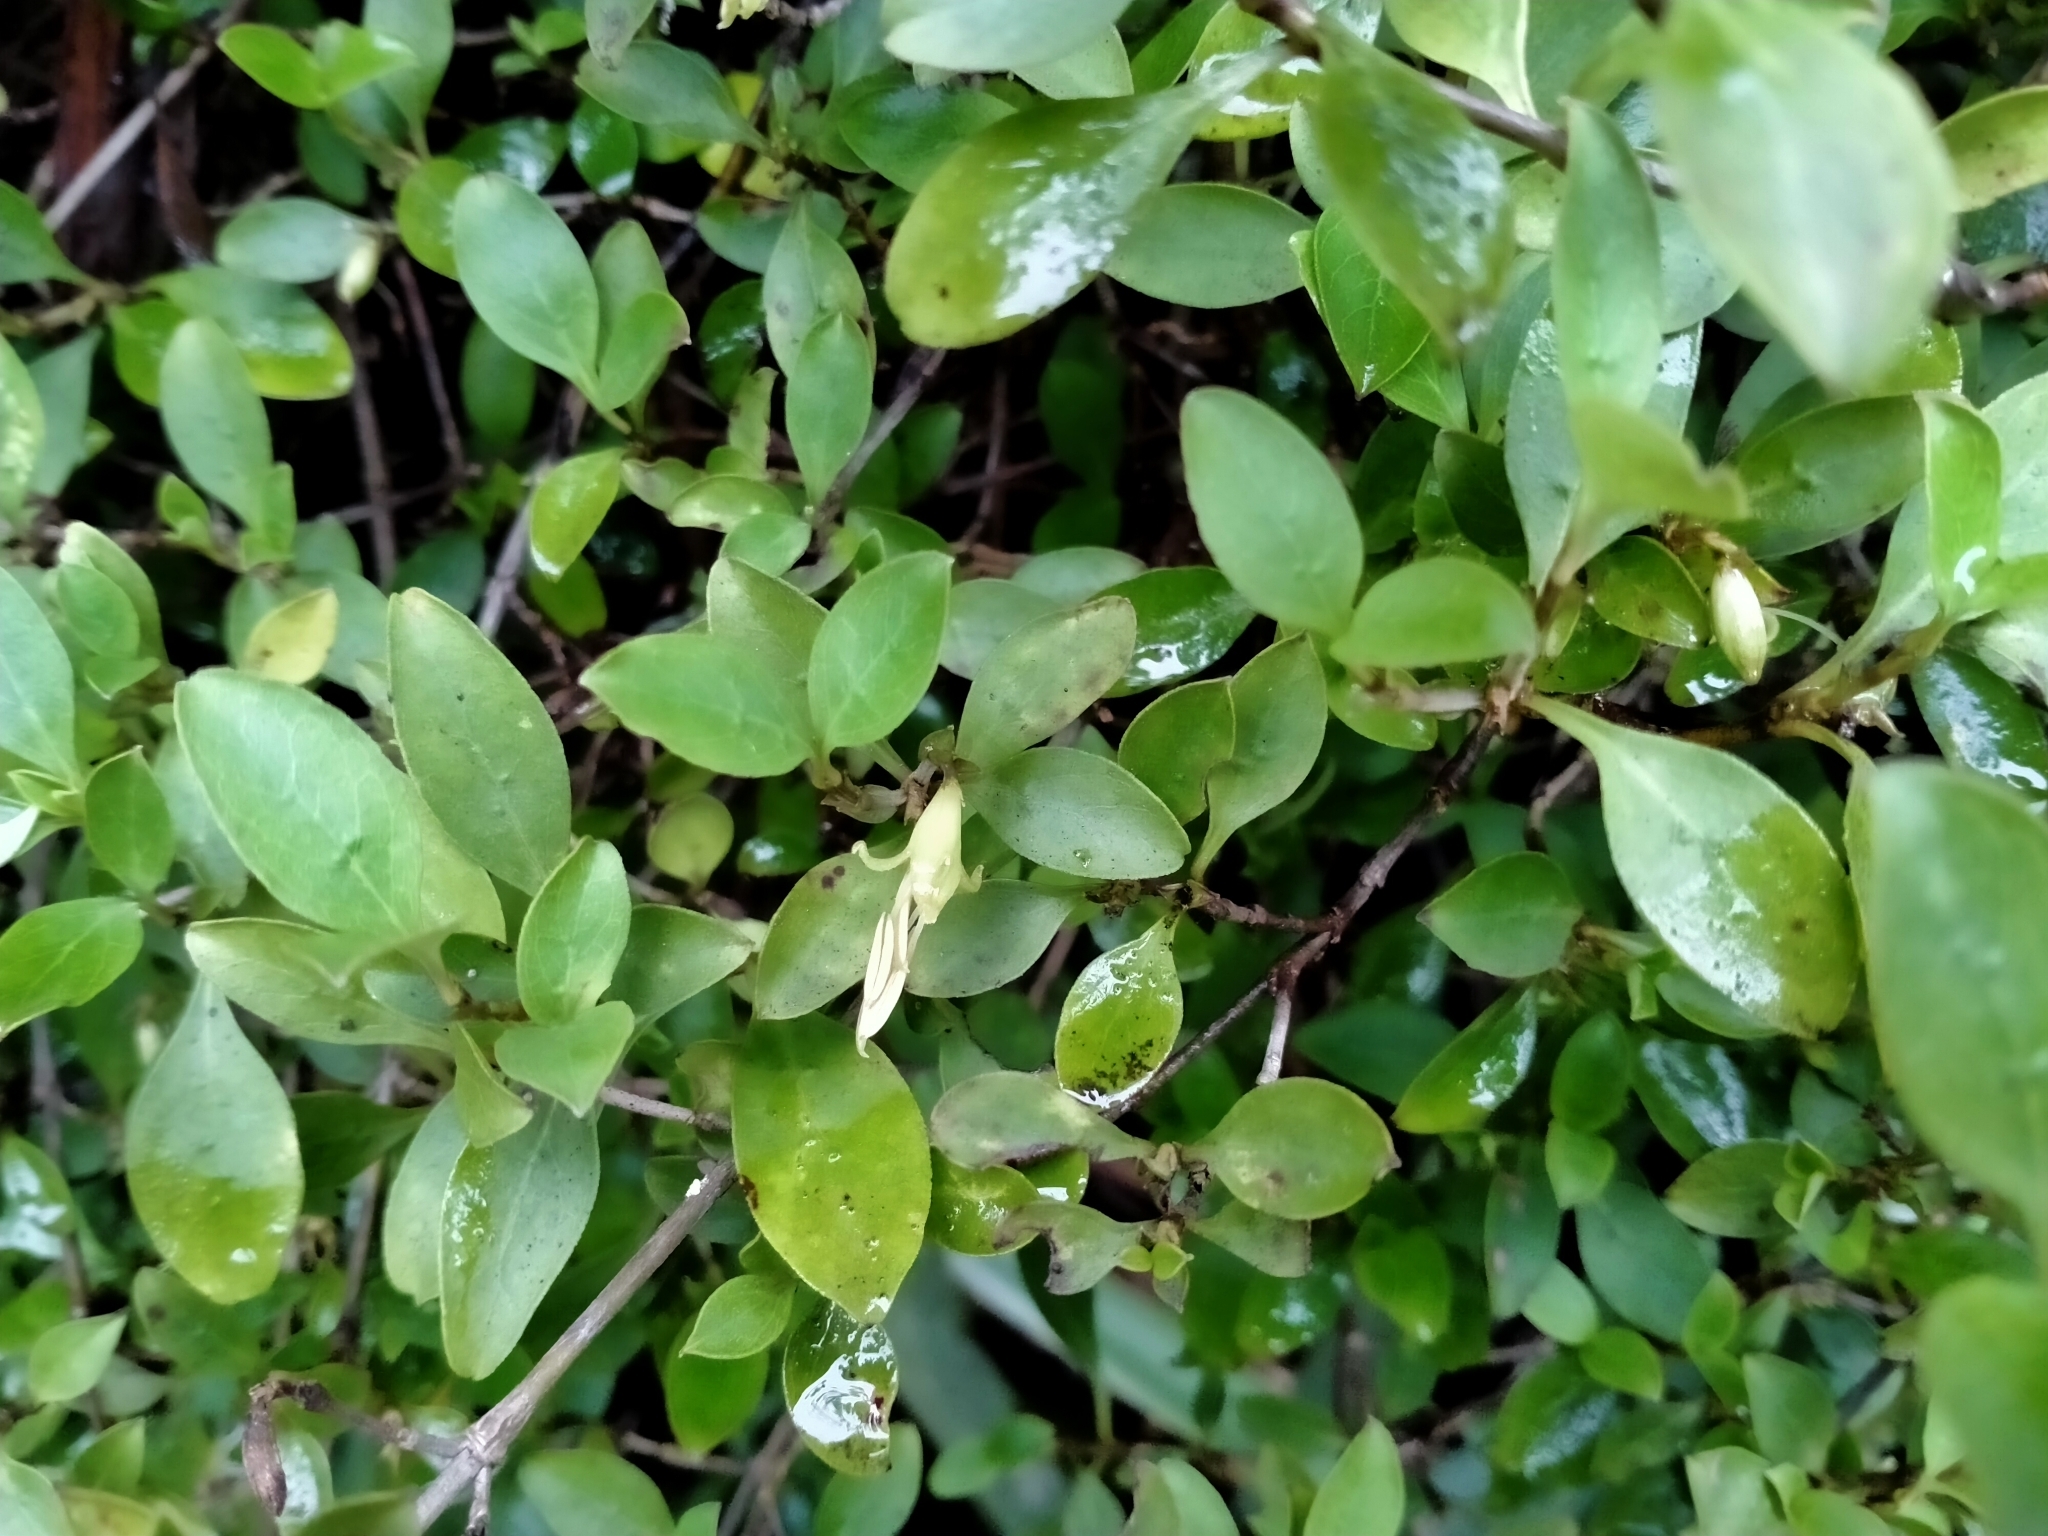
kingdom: Plantae
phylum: Tracheophyta
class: Magnoliopsida
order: Gentianales
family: Rubiaceae
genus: Coprosma
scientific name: Coprosma foetidissima
